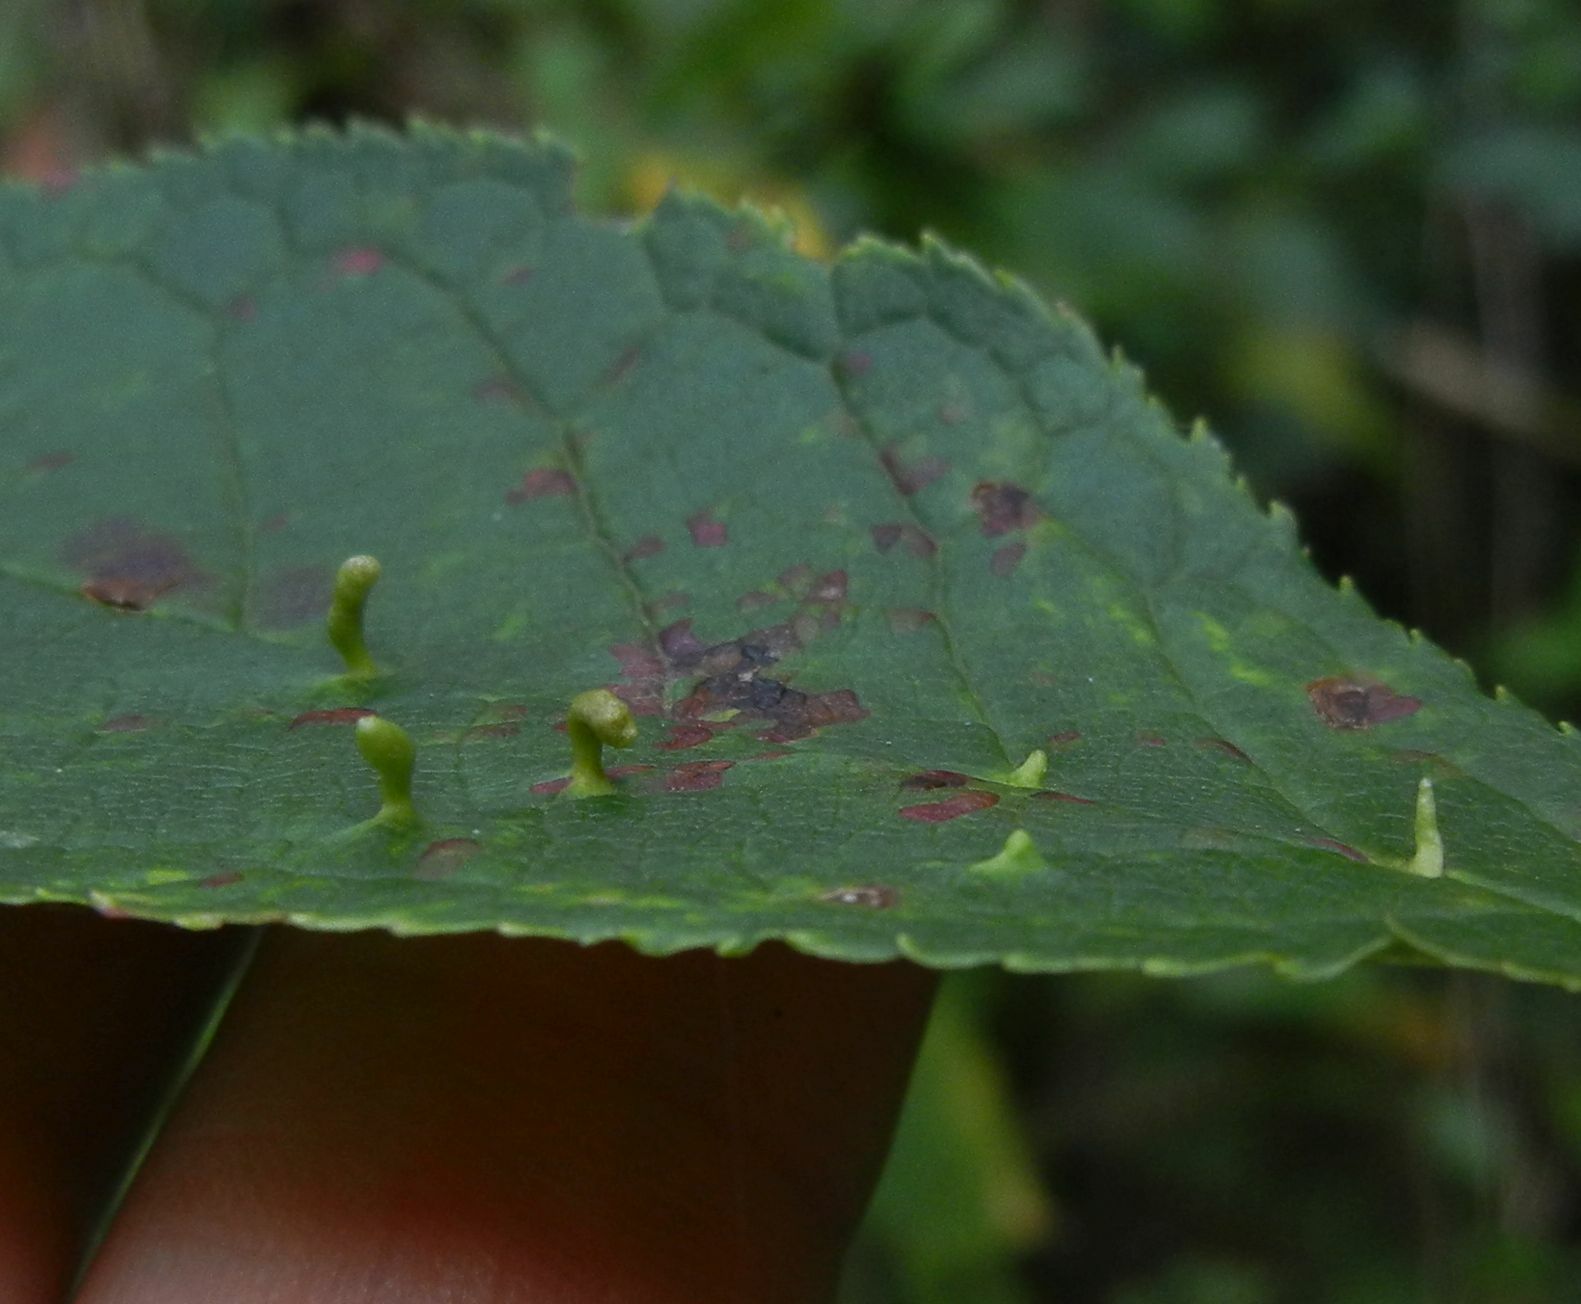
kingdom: Animalia
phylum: Arthropoda
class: Arachnida
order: Trombidiformes
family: Eriophyidae
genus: Eriophyes
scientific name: Eriophyes padi
